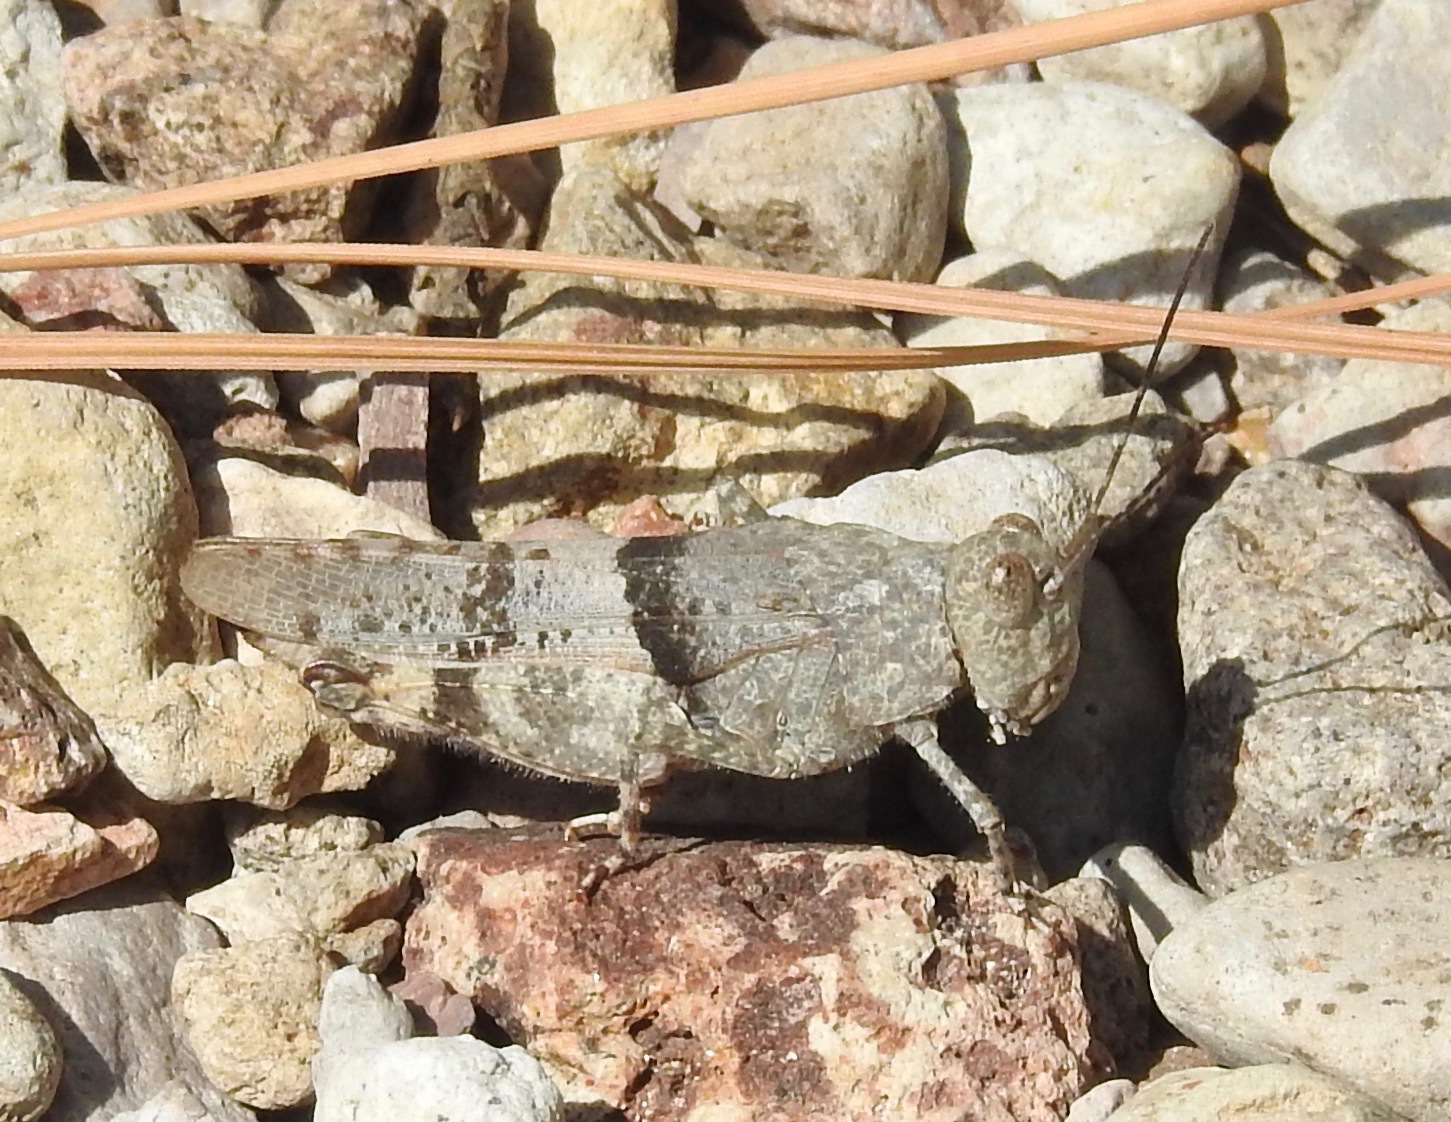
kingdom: Animalia
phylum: Arthropoda
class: Insecta
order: Orthoptera
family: Acrididae
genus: Heliastus
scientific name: Heliastus benjamini
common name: Arroyo grasshopper
